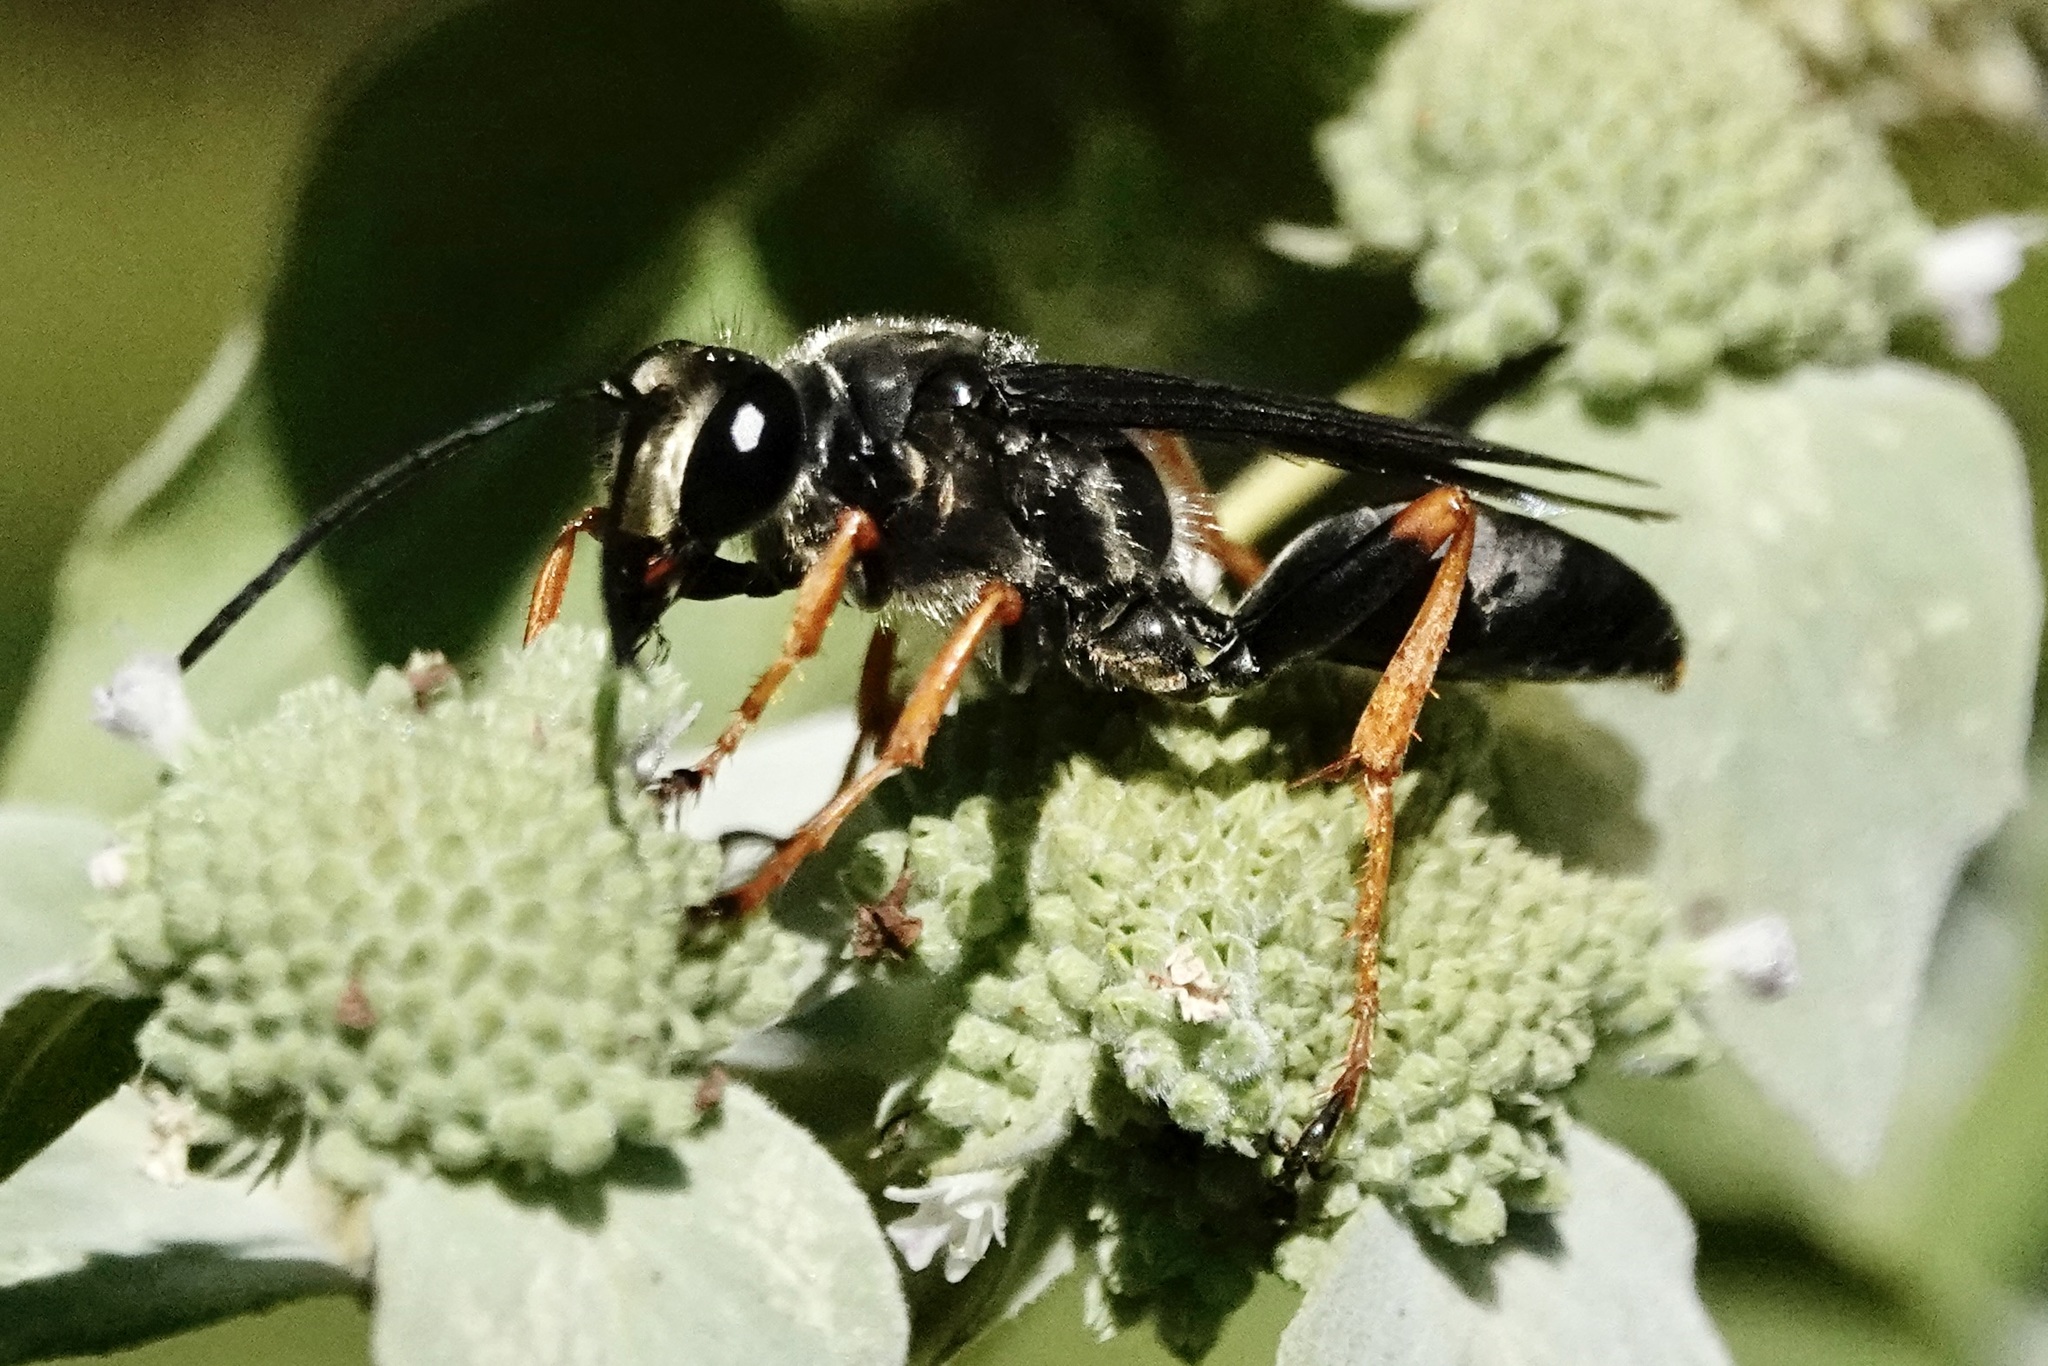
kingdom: Animalia
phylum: Arthropoda
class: Insecta
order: Hymenoptera
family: Sphecidae
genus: Sphex
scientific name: Sphex nudus
